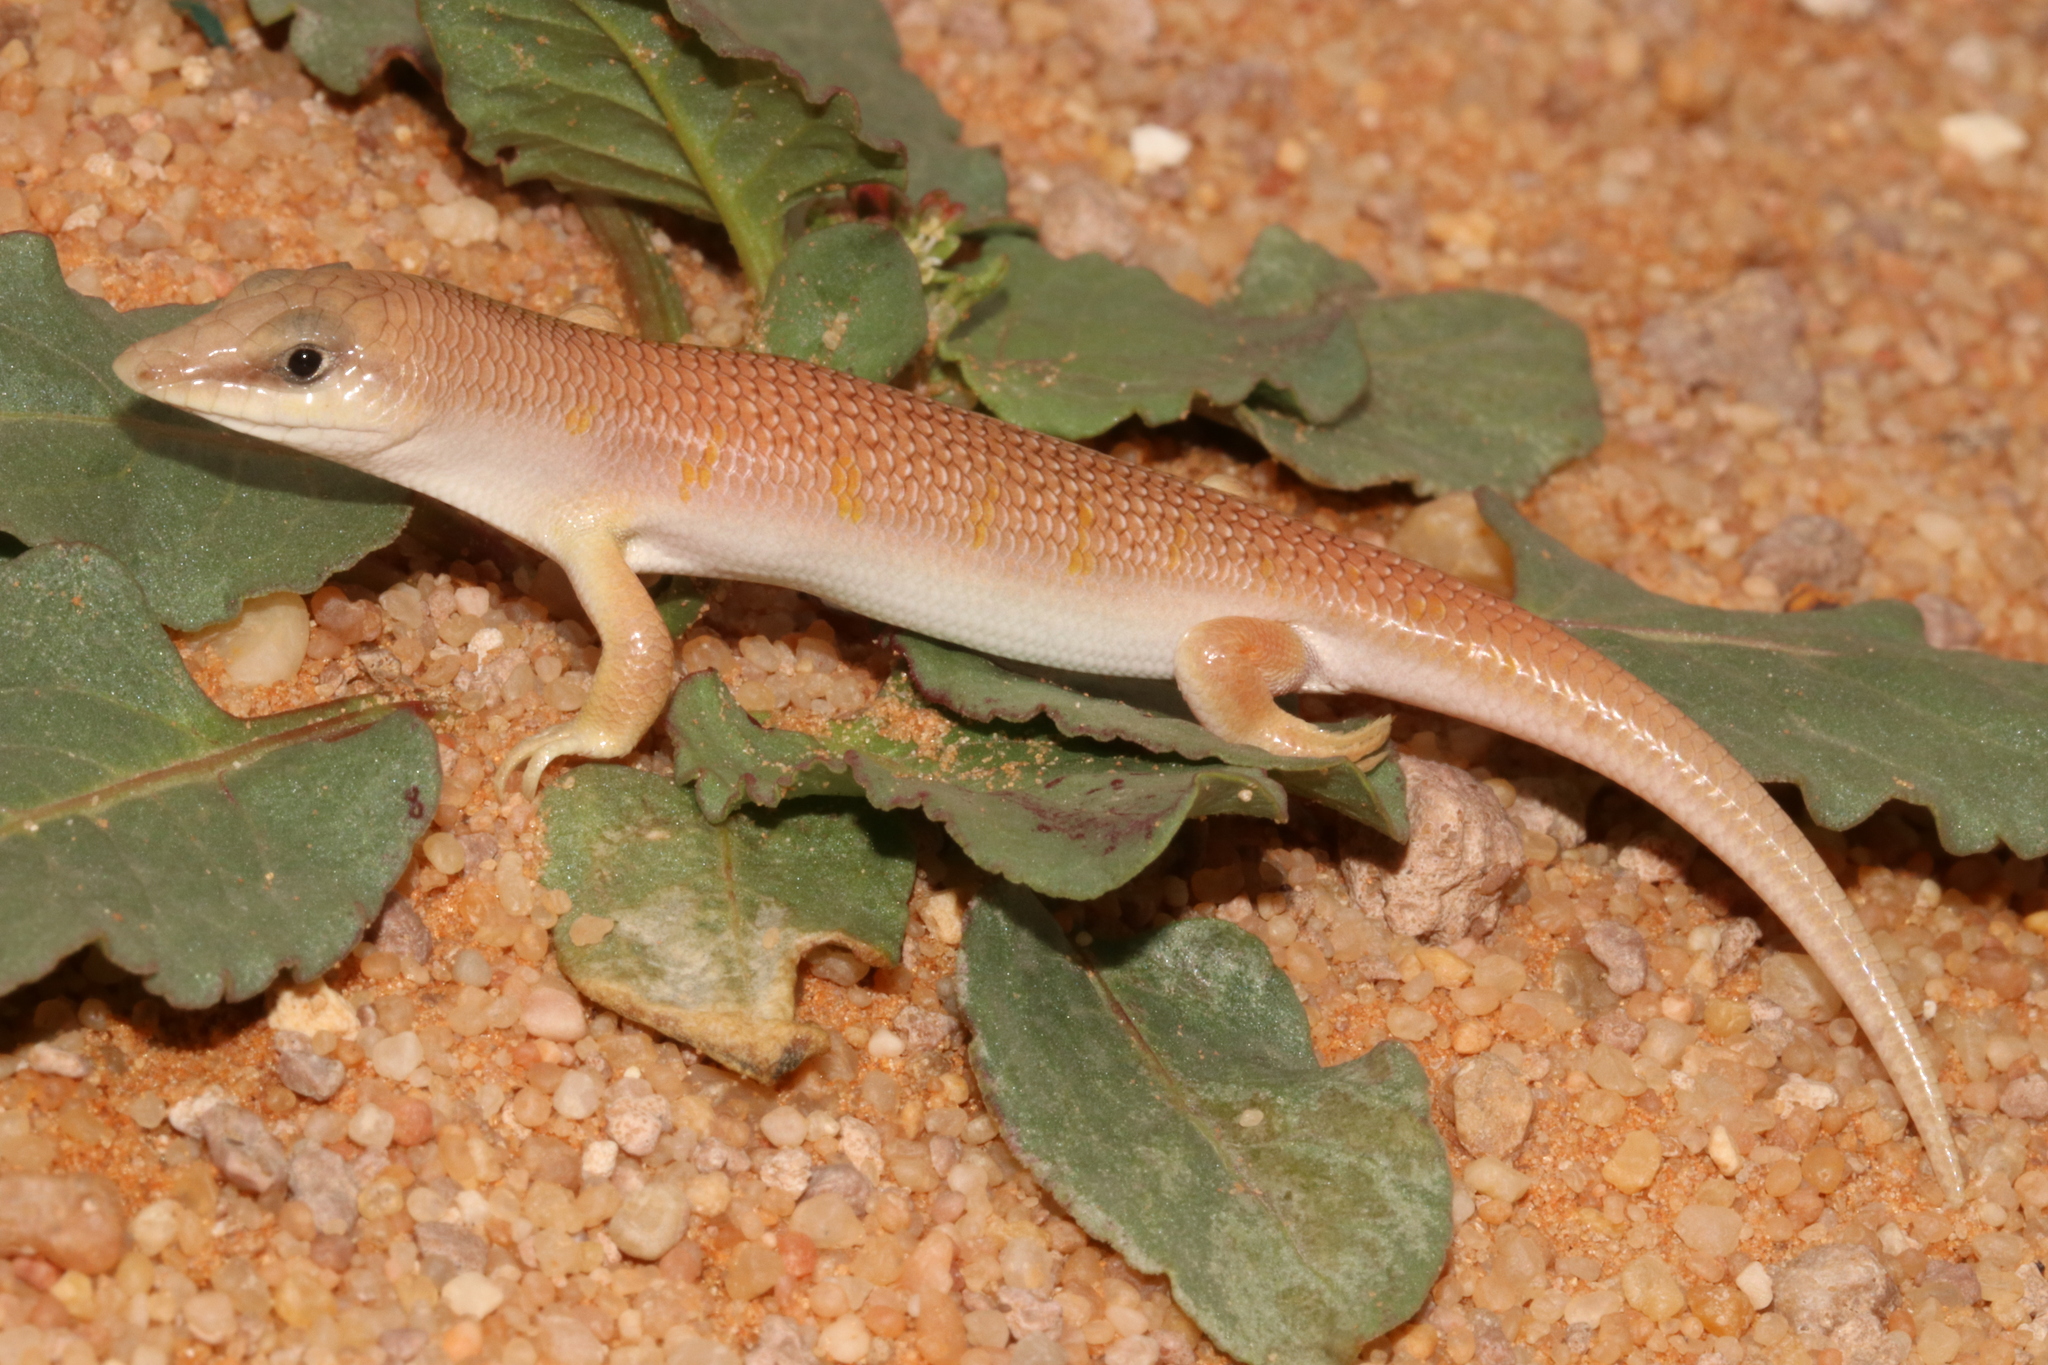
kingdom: Animalia
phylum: Chordata
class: Squamata
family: Scincidae
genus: Scincus
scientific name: Scincus conirostris
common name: Sandfish skink
